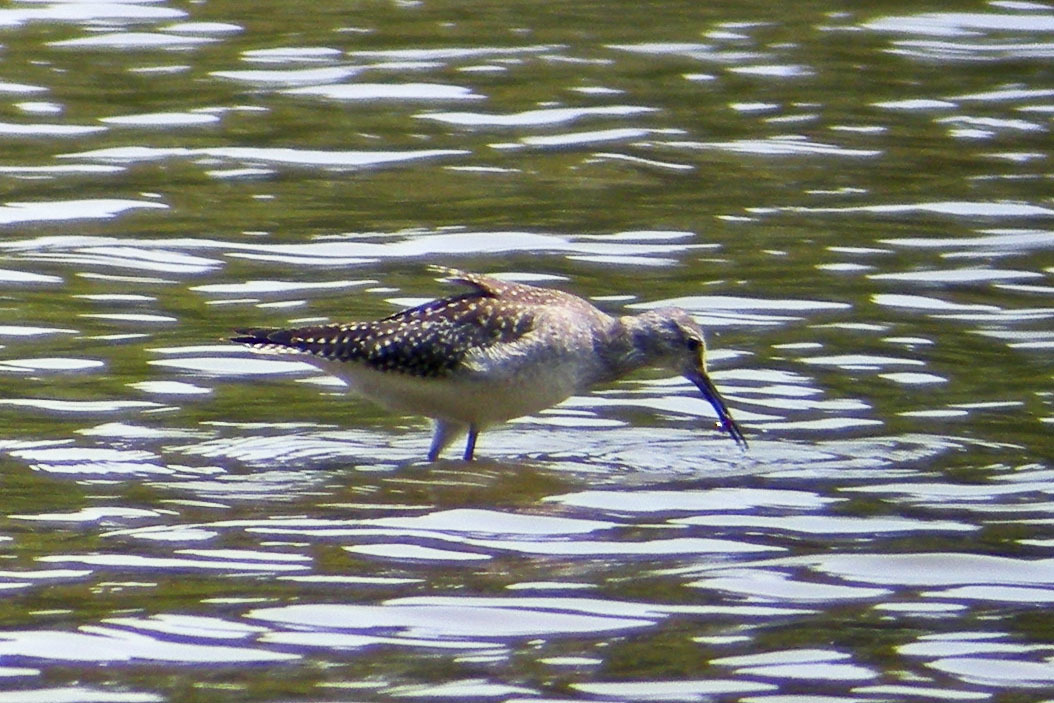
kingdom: Animalia
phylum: Chordata
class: Aves
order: Charadriiformes
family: Scolopacidae
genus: Tringa
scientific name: Tringa melanoleuca
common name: Greater yellowlegs
